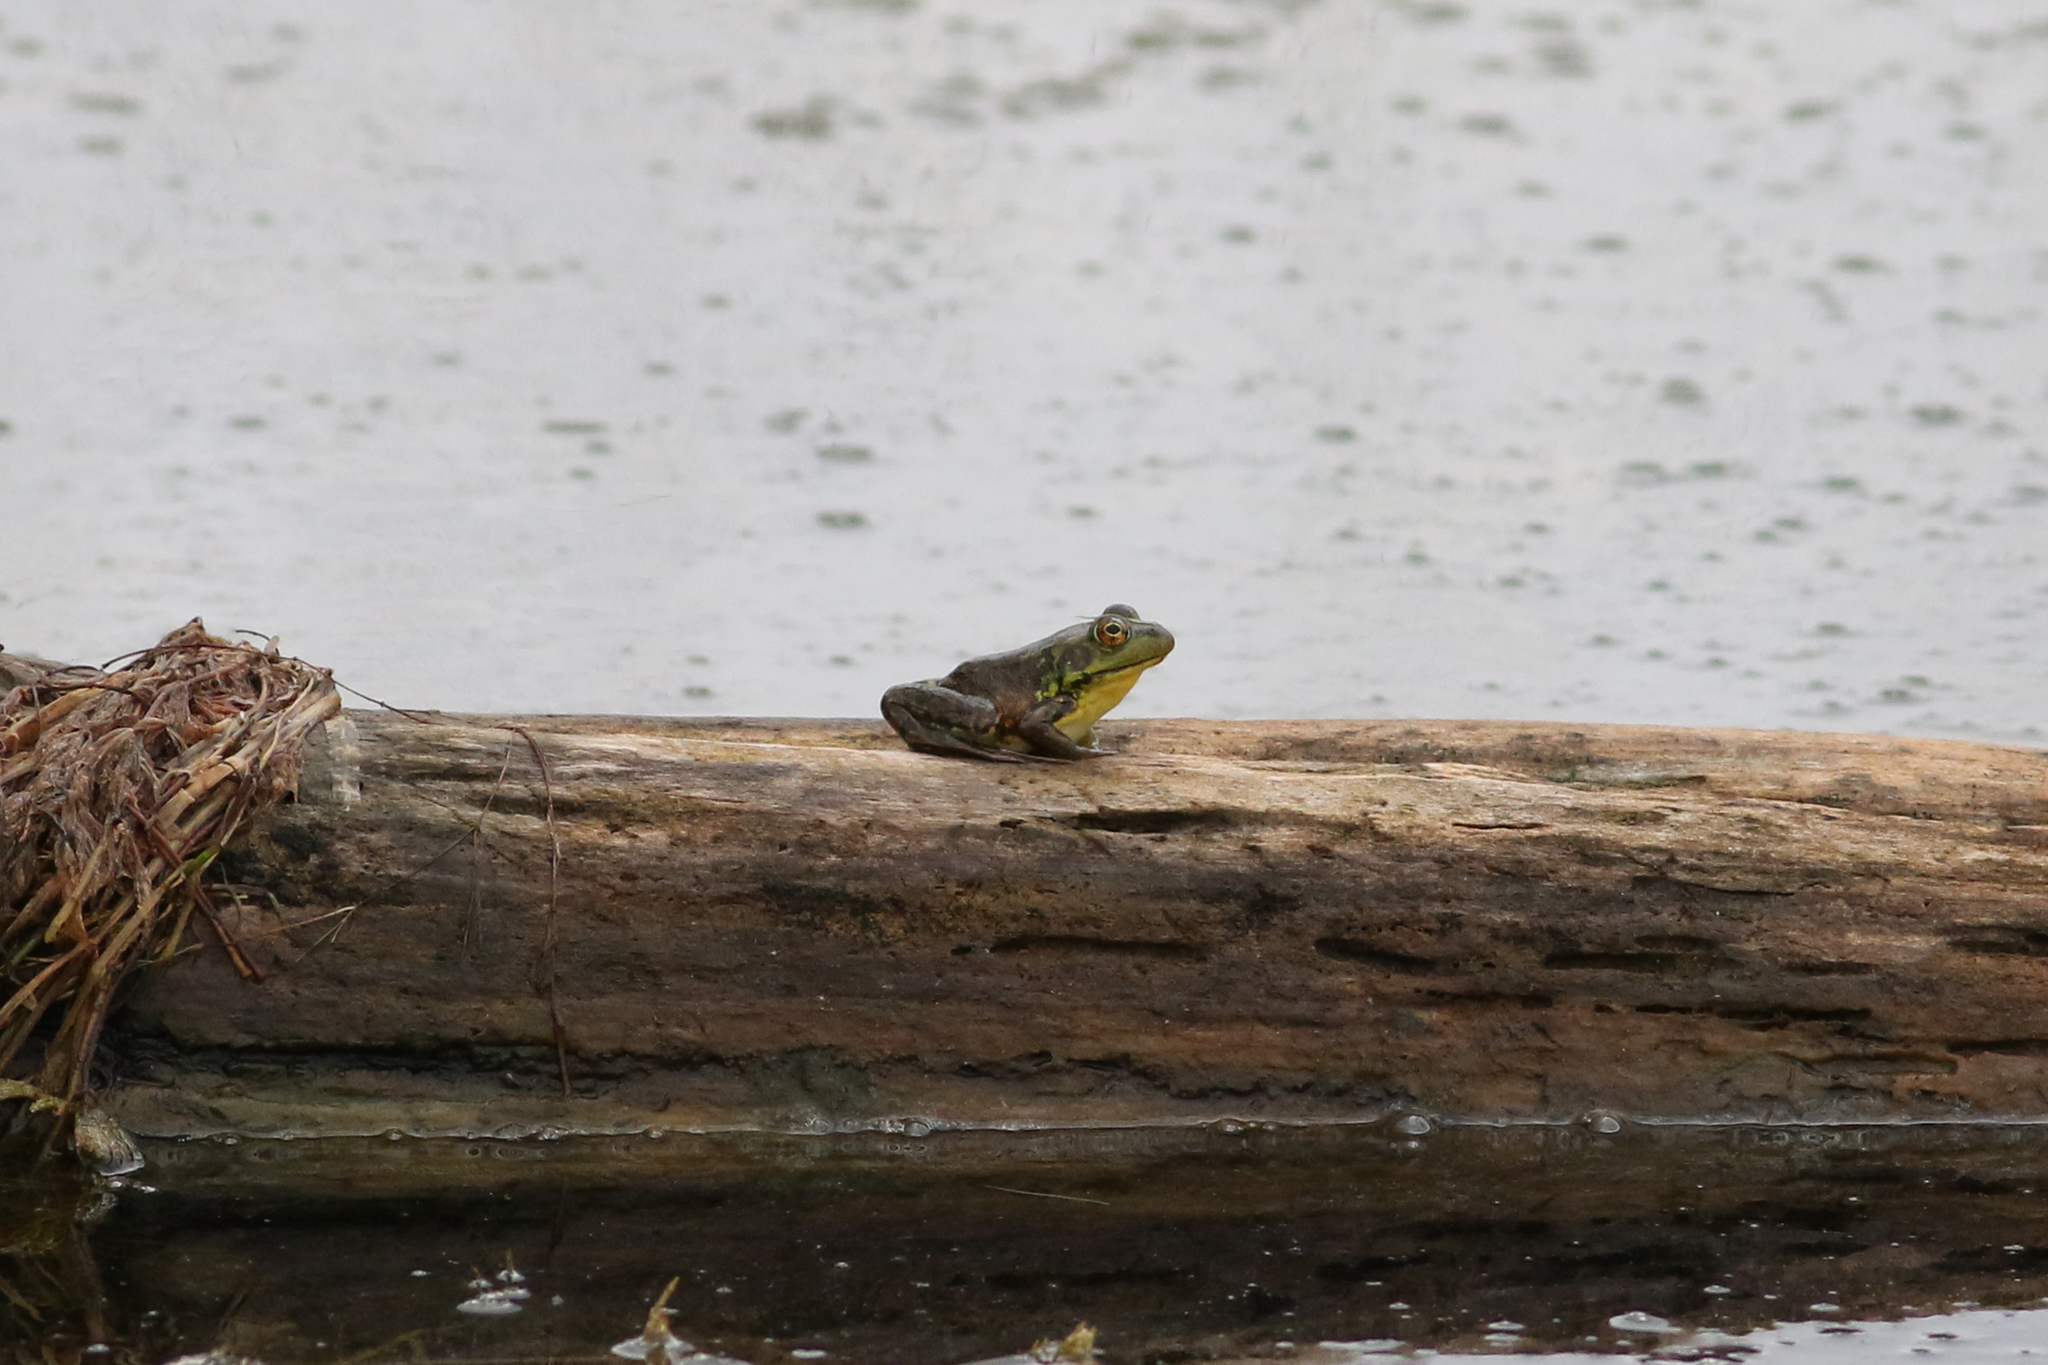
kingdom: Animalia
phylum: Chordata
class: Amphibia
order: Anura
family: Ranidae
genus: Lithobates
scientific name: Lithobates septentrionalis
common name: Mink frog
